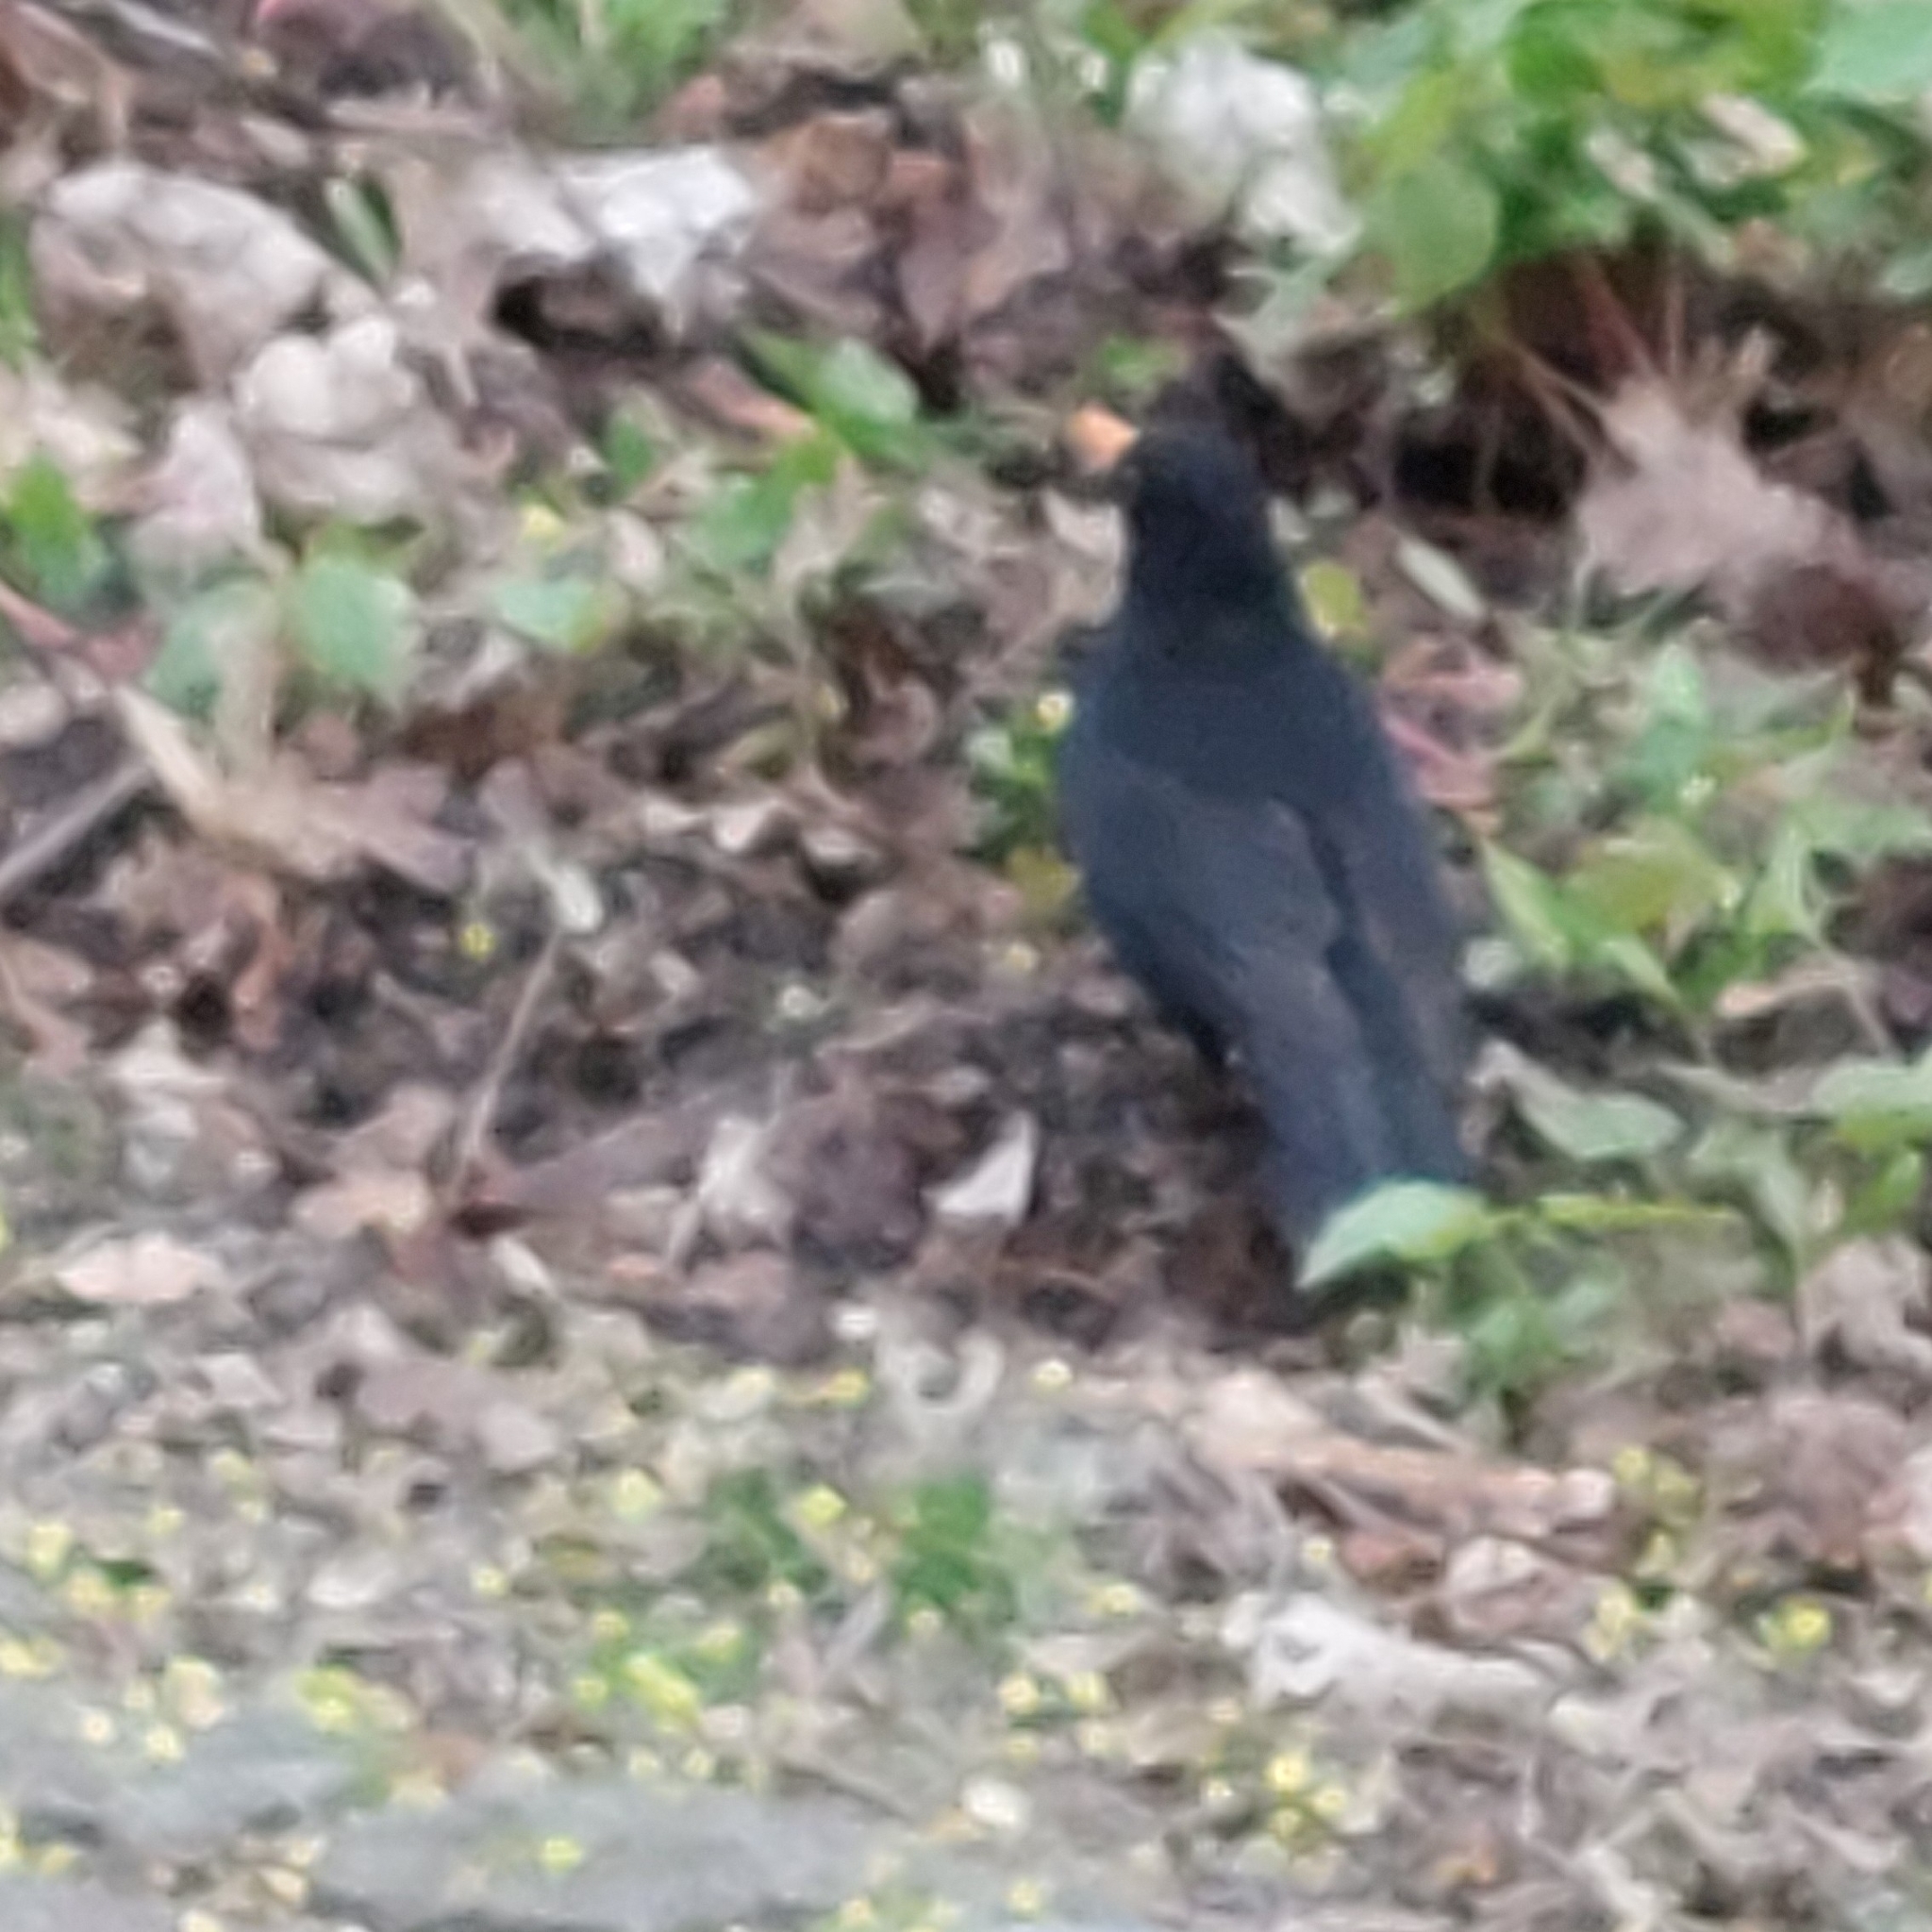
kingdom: Animalia
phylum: Chordata
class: Aves
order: Passeriformes
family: Turdidae
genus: Turdus
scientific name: Turdus merula
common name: Common blackbird
